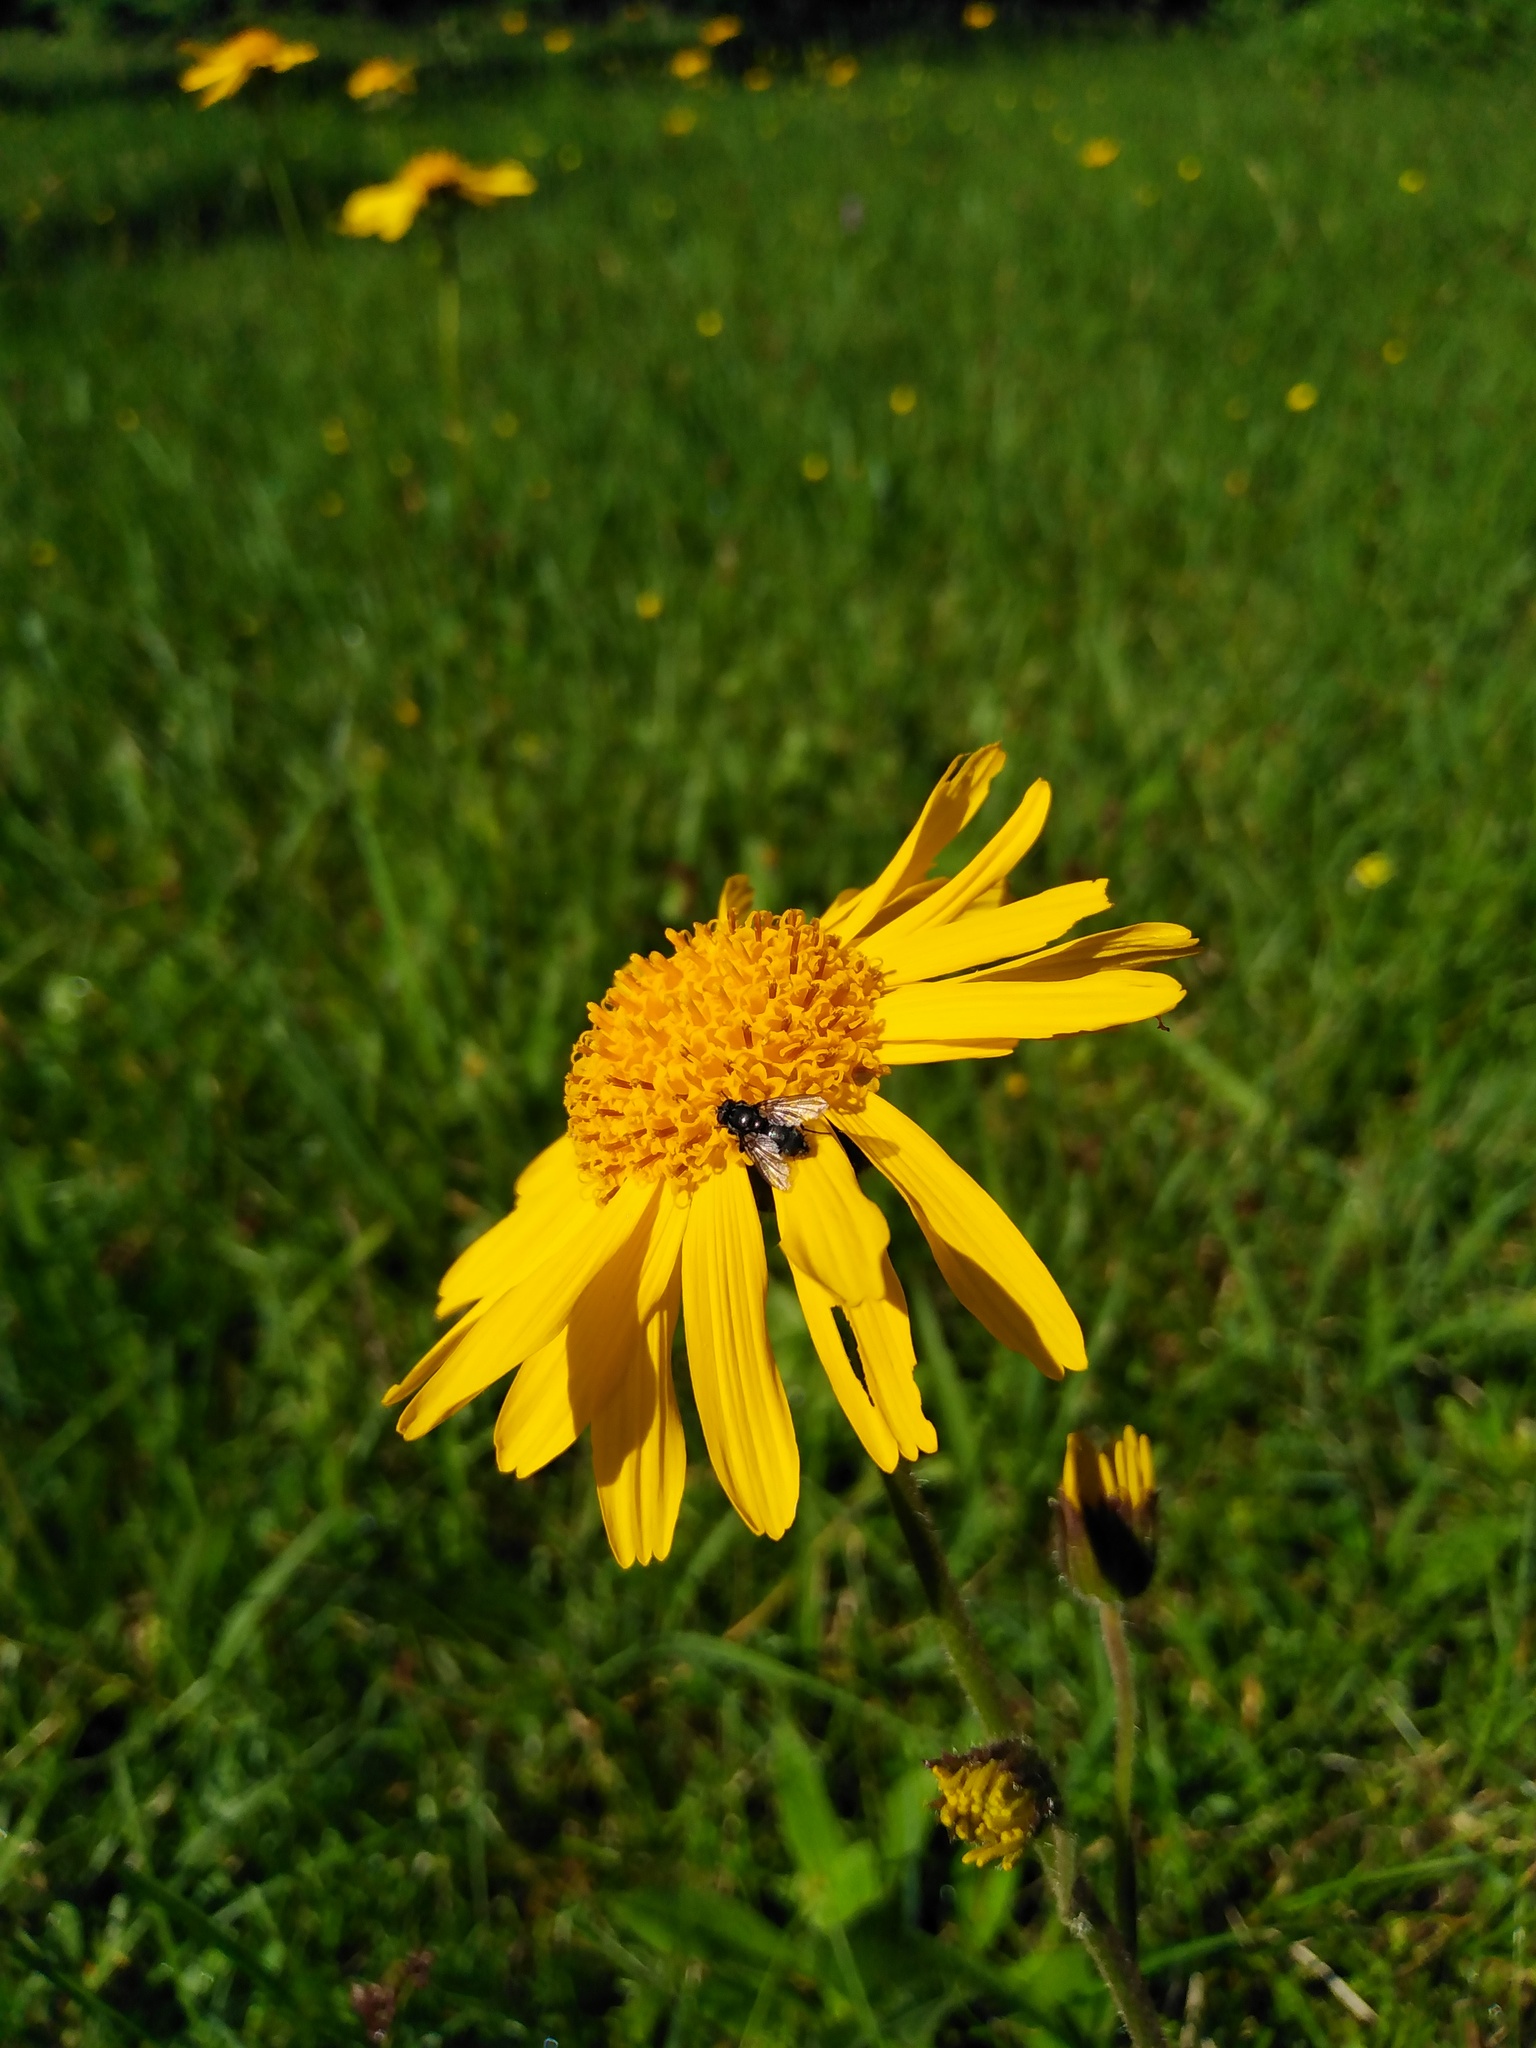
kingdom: Plantae
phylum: Tracheophyta
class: Magnoliopsida
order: Asterales
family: Asteraceae
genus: Arnica
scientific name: Arnica montana
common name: Leopard's bane
